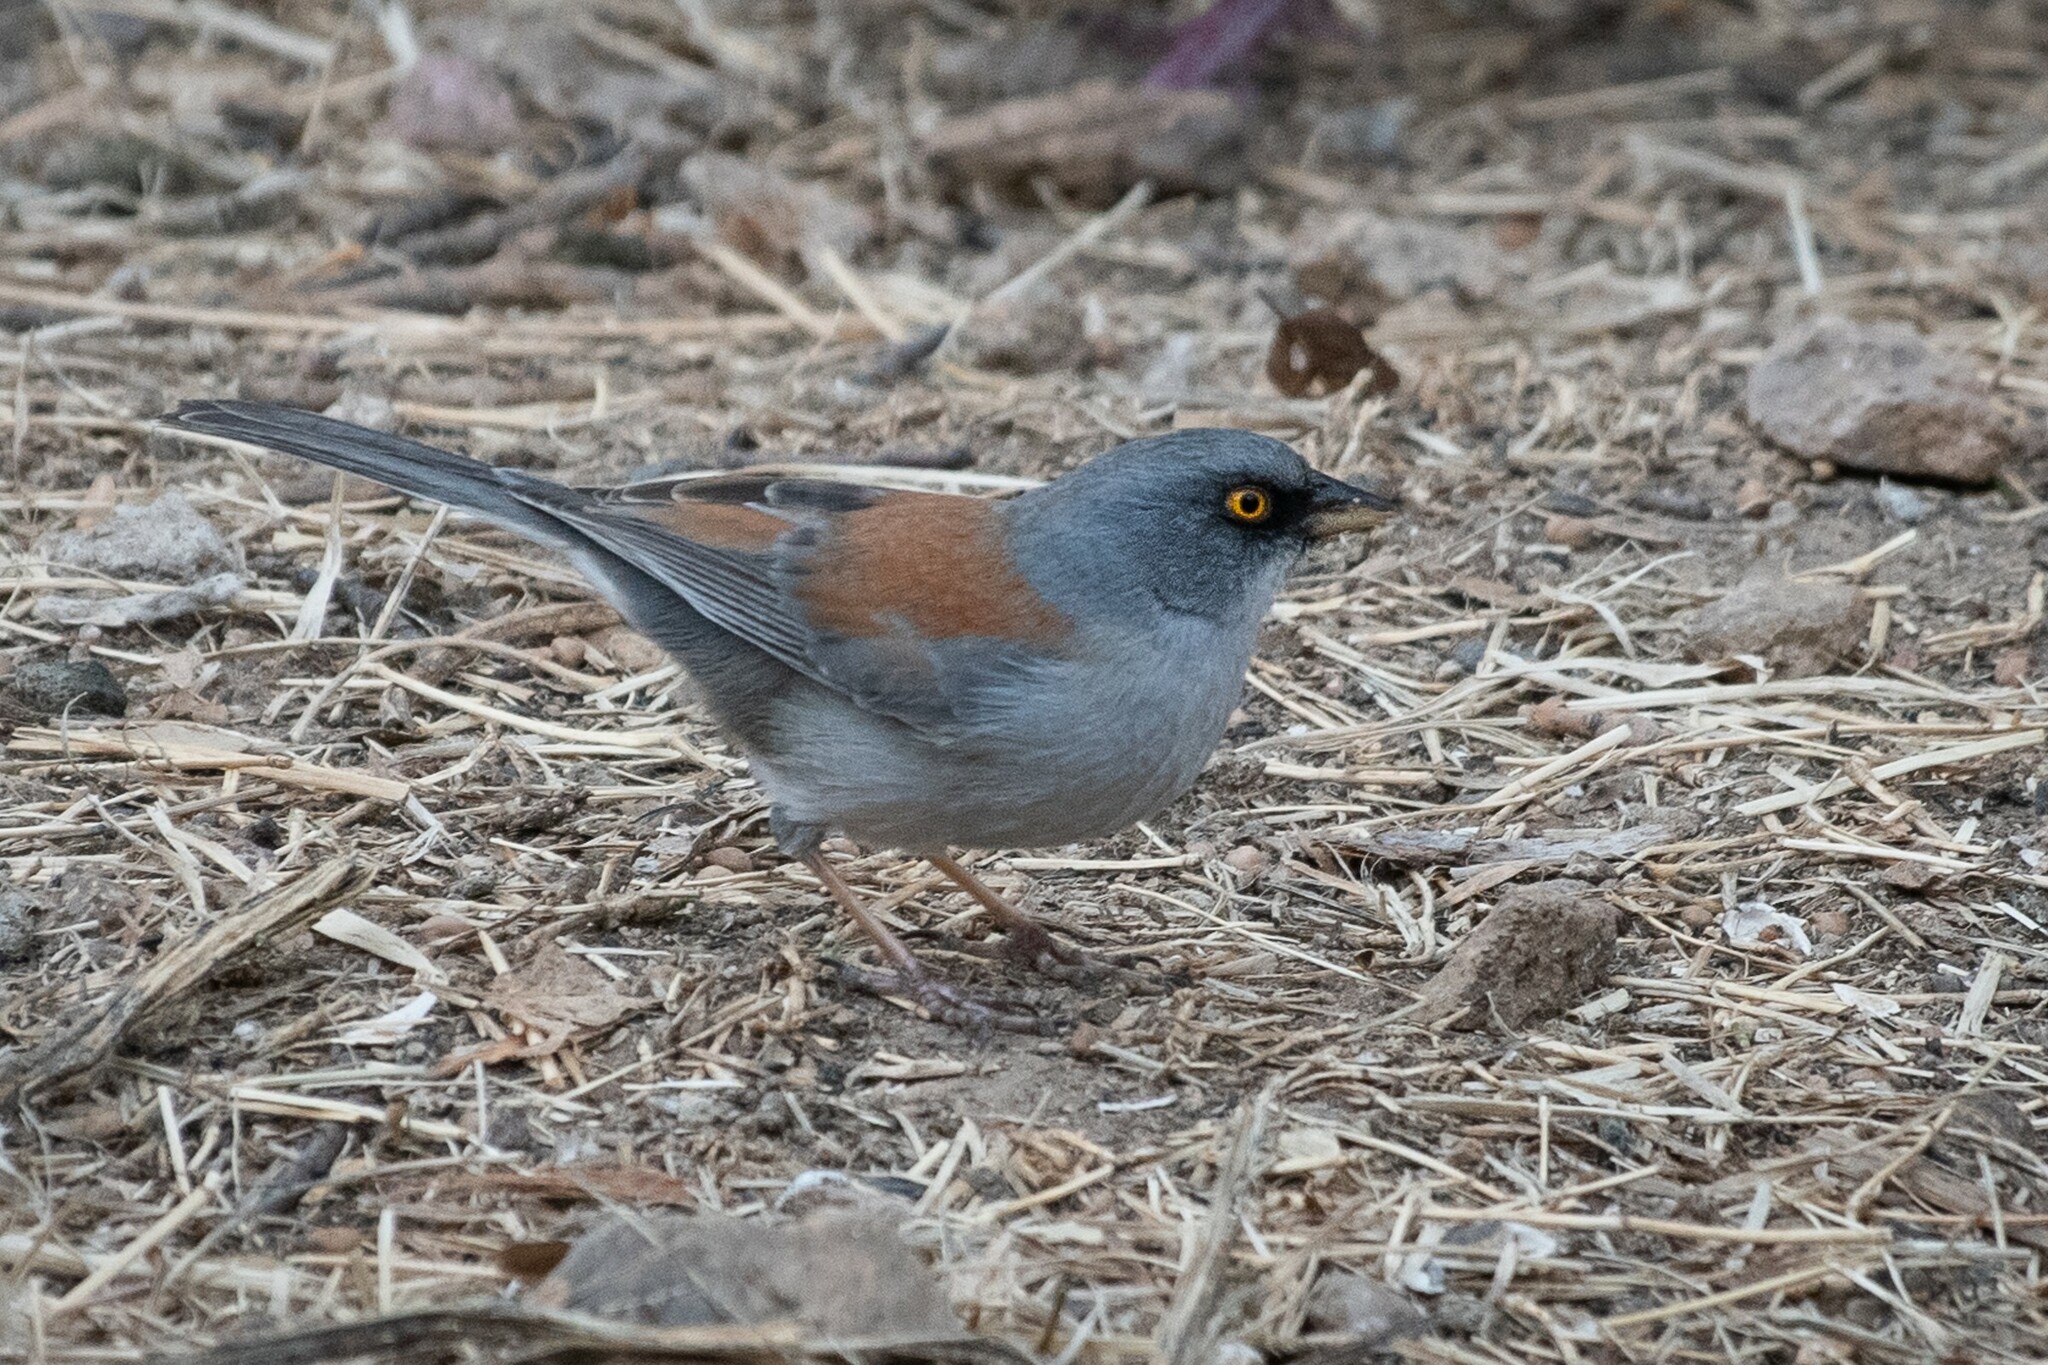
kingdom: Animalia
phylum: Chordata
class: Aves
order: Passeriformes
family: Passerellidae
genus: Junco
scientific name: Junco phaeonotus
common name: Yellow-eyed junco
